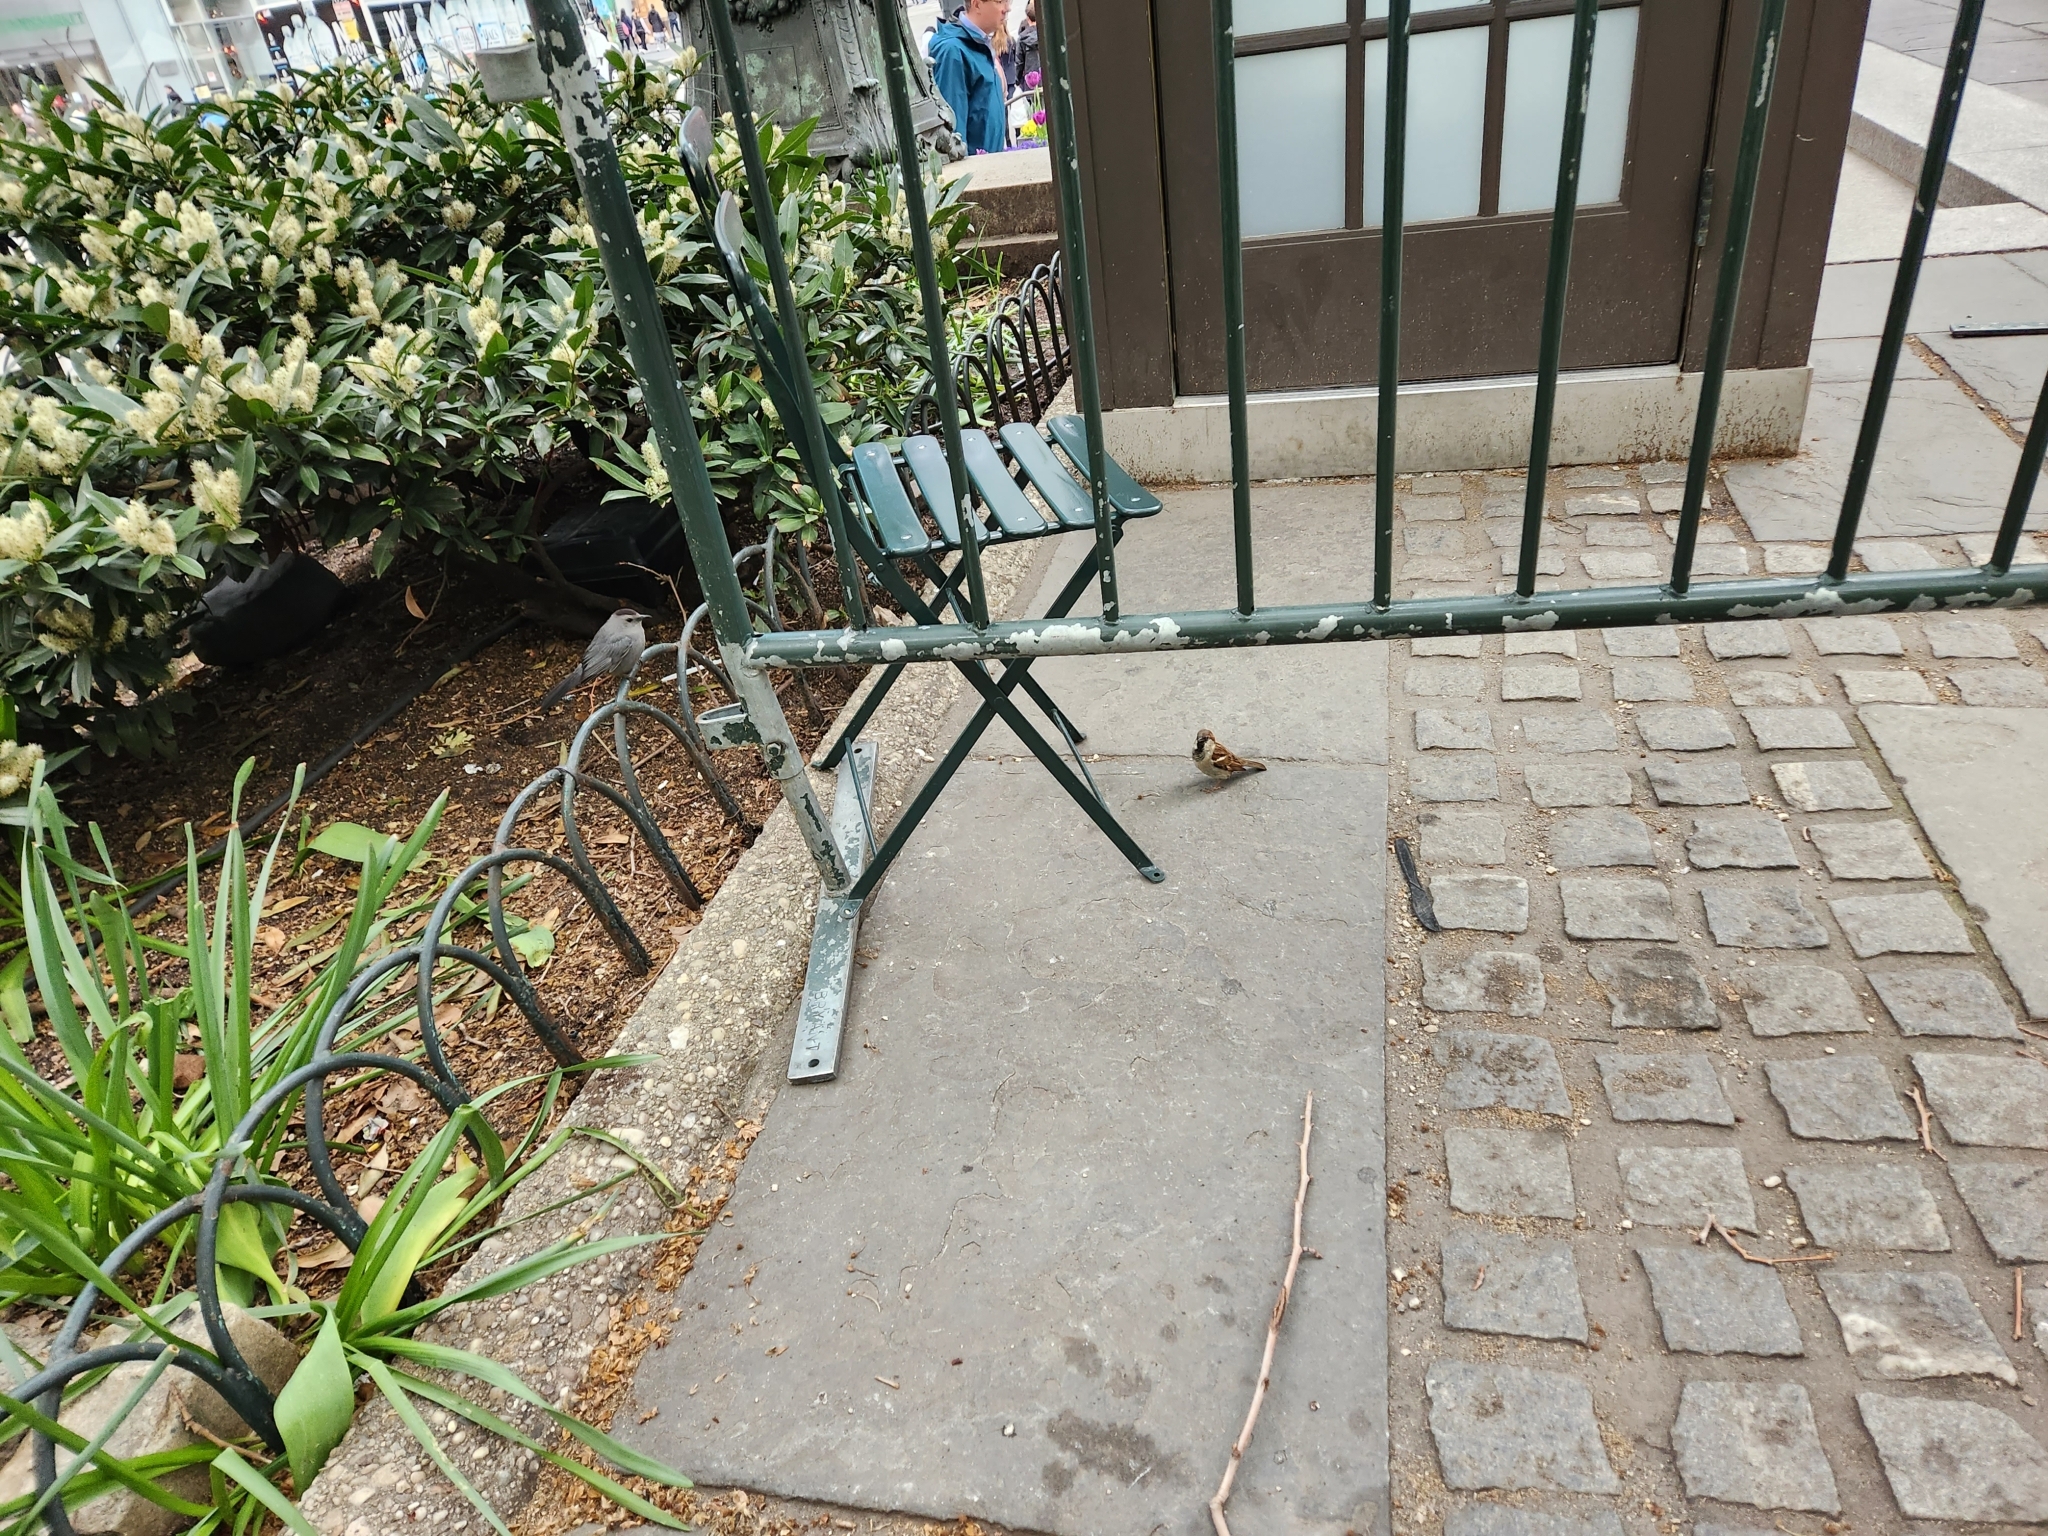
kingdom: Animalia
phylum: Chordata
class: Aves
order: Passeriformes
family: Mimidae
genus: Dumetella
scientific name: Dumetella carolinensis
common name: Gray catbird
